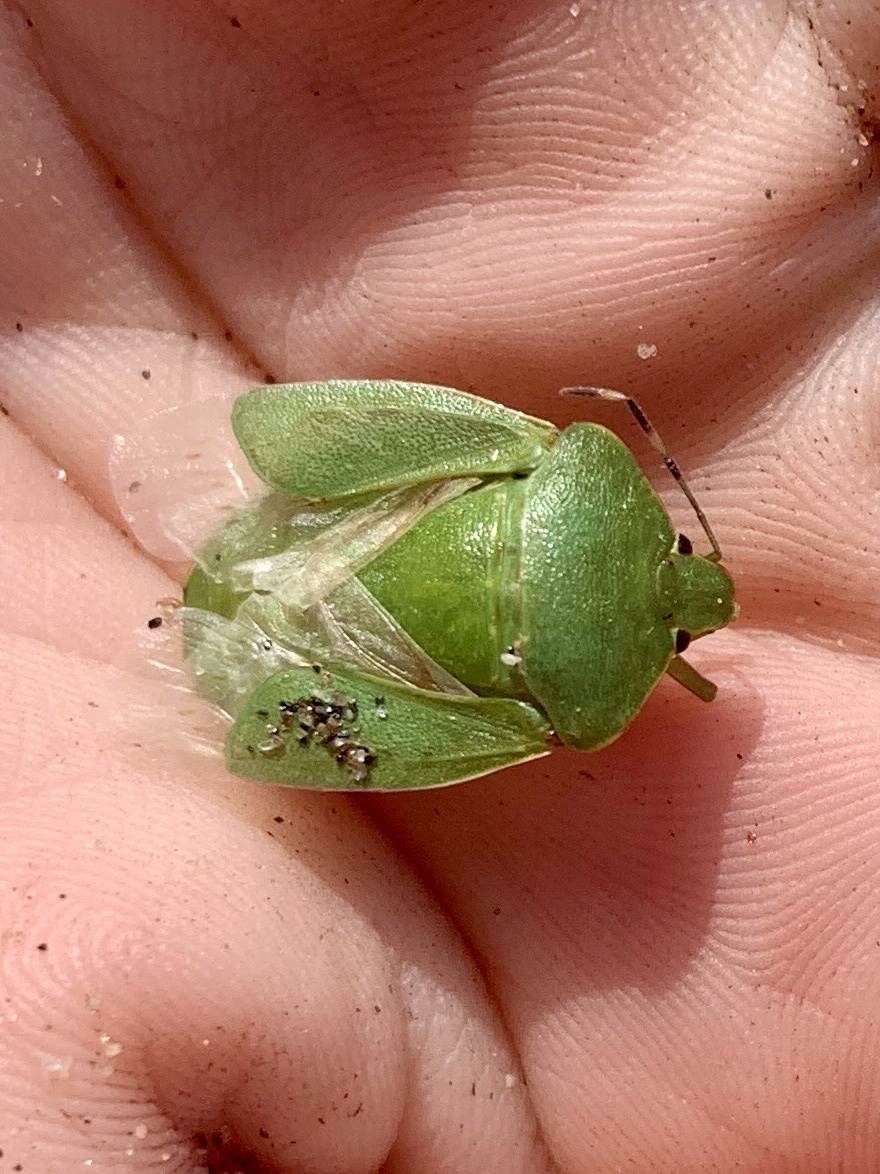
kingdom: Animalia
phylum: Arthropoda
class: Insecta
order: Hemiptera
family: Pentatomidae
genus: Chinavia
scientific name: Chinavia hilaris
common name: Green stink bug
